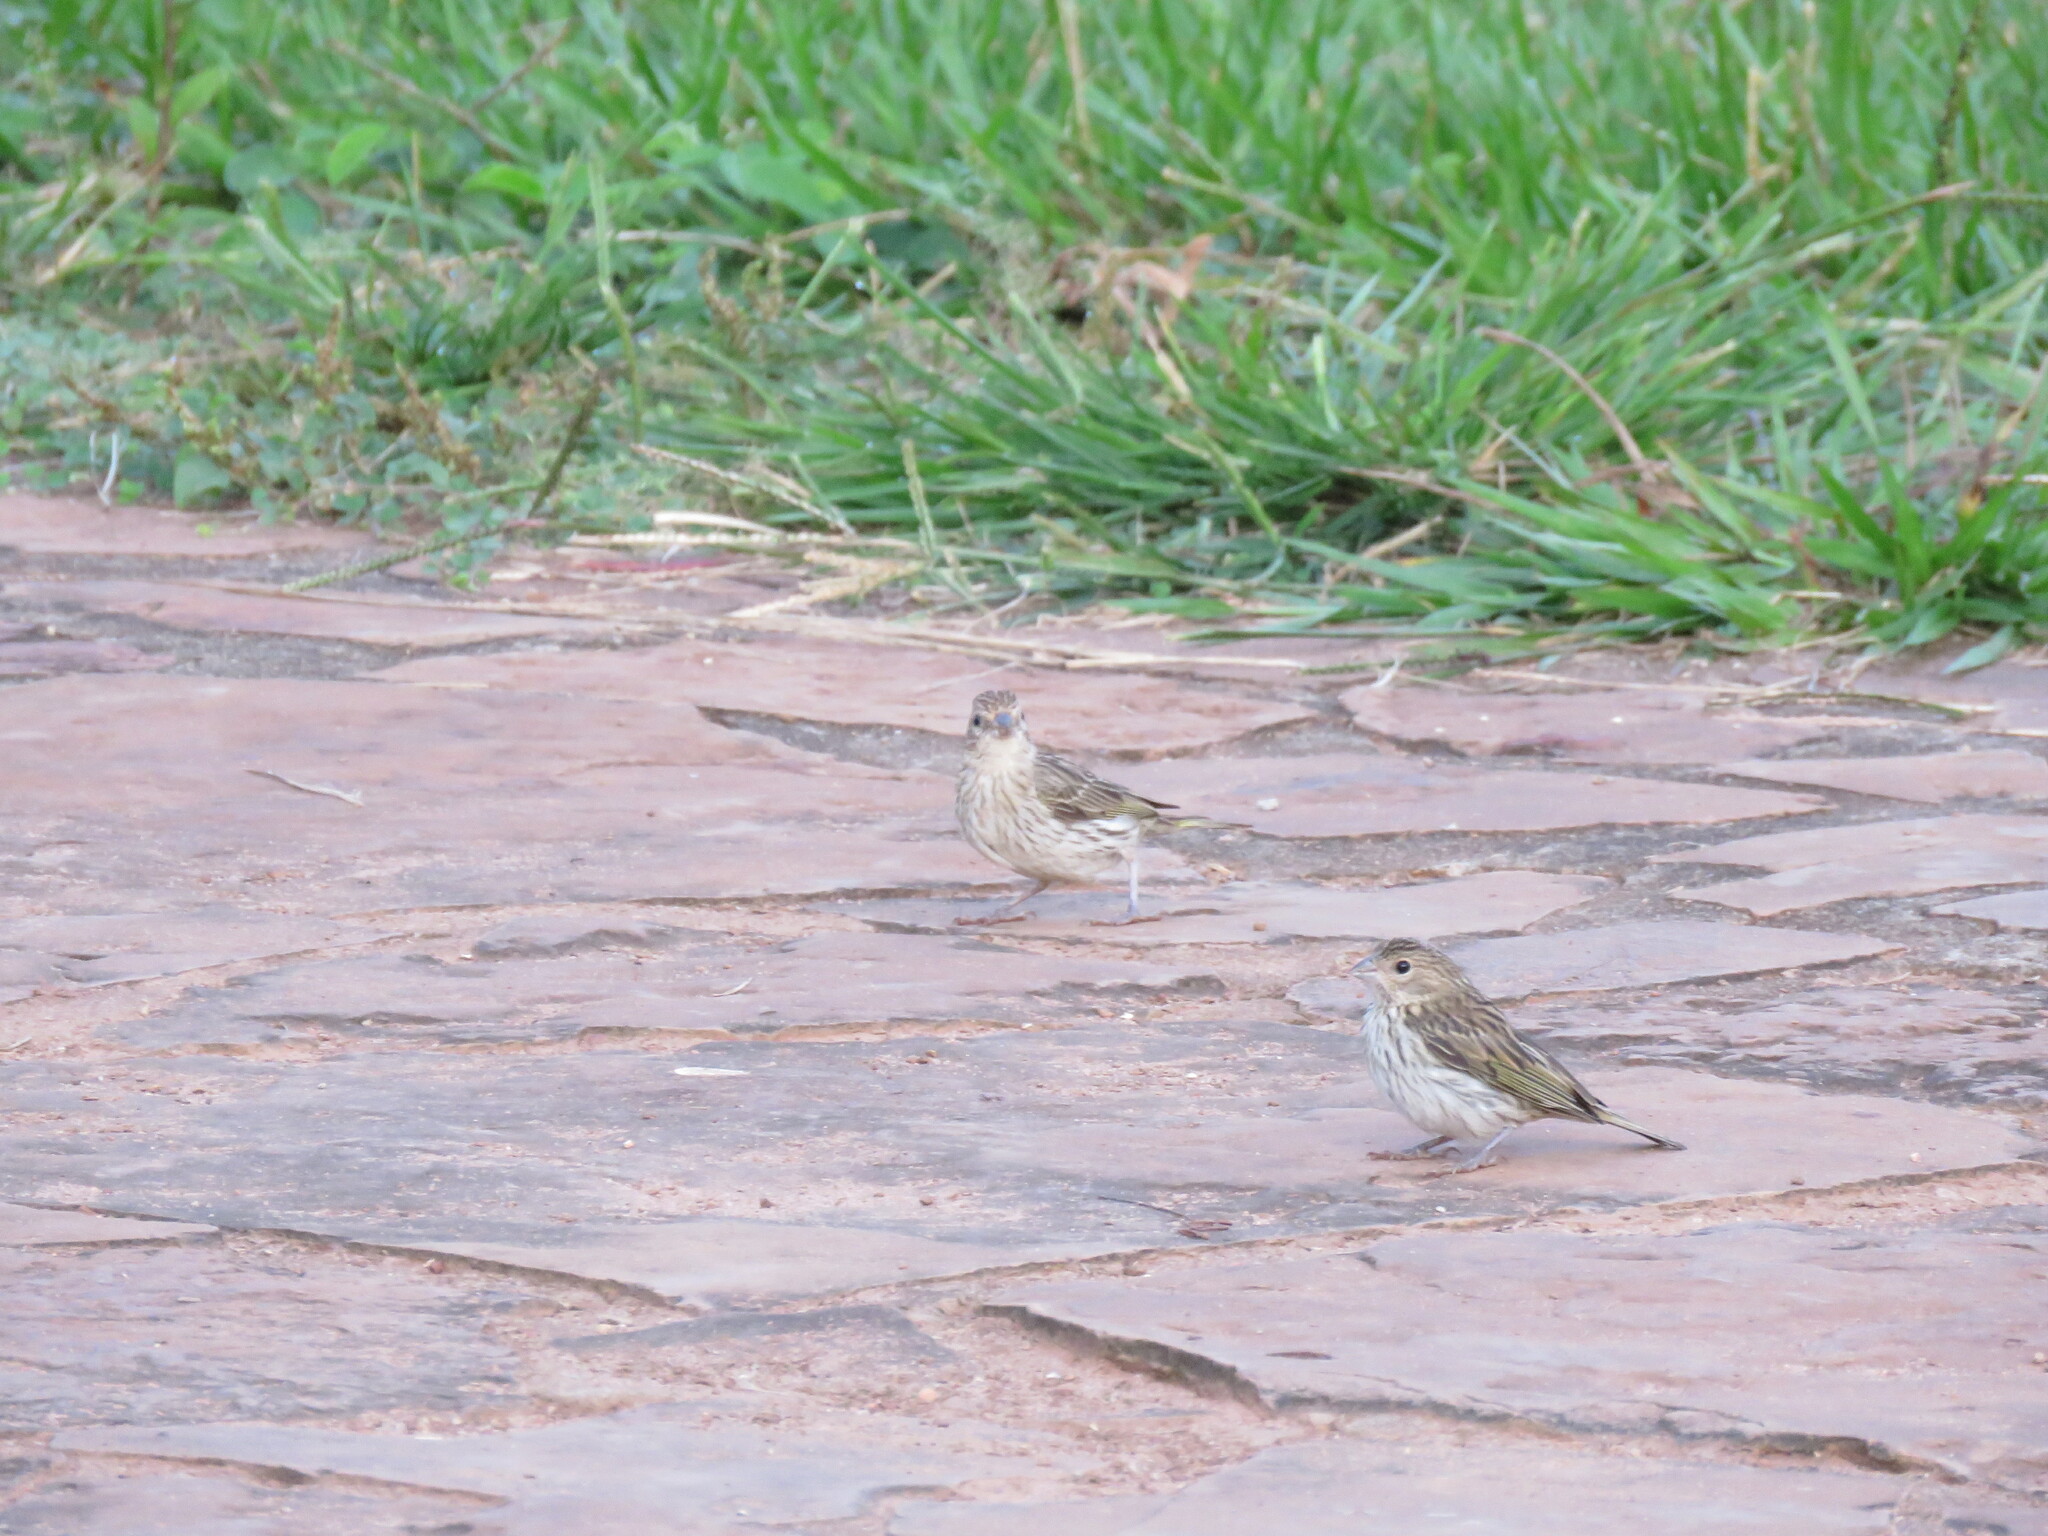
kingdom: Animalia
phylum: Chordata
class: Aves
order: Passeriformes
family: Thraupidae
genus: Sicalis
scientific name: Sicalis flaveola
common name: Saffron finch
